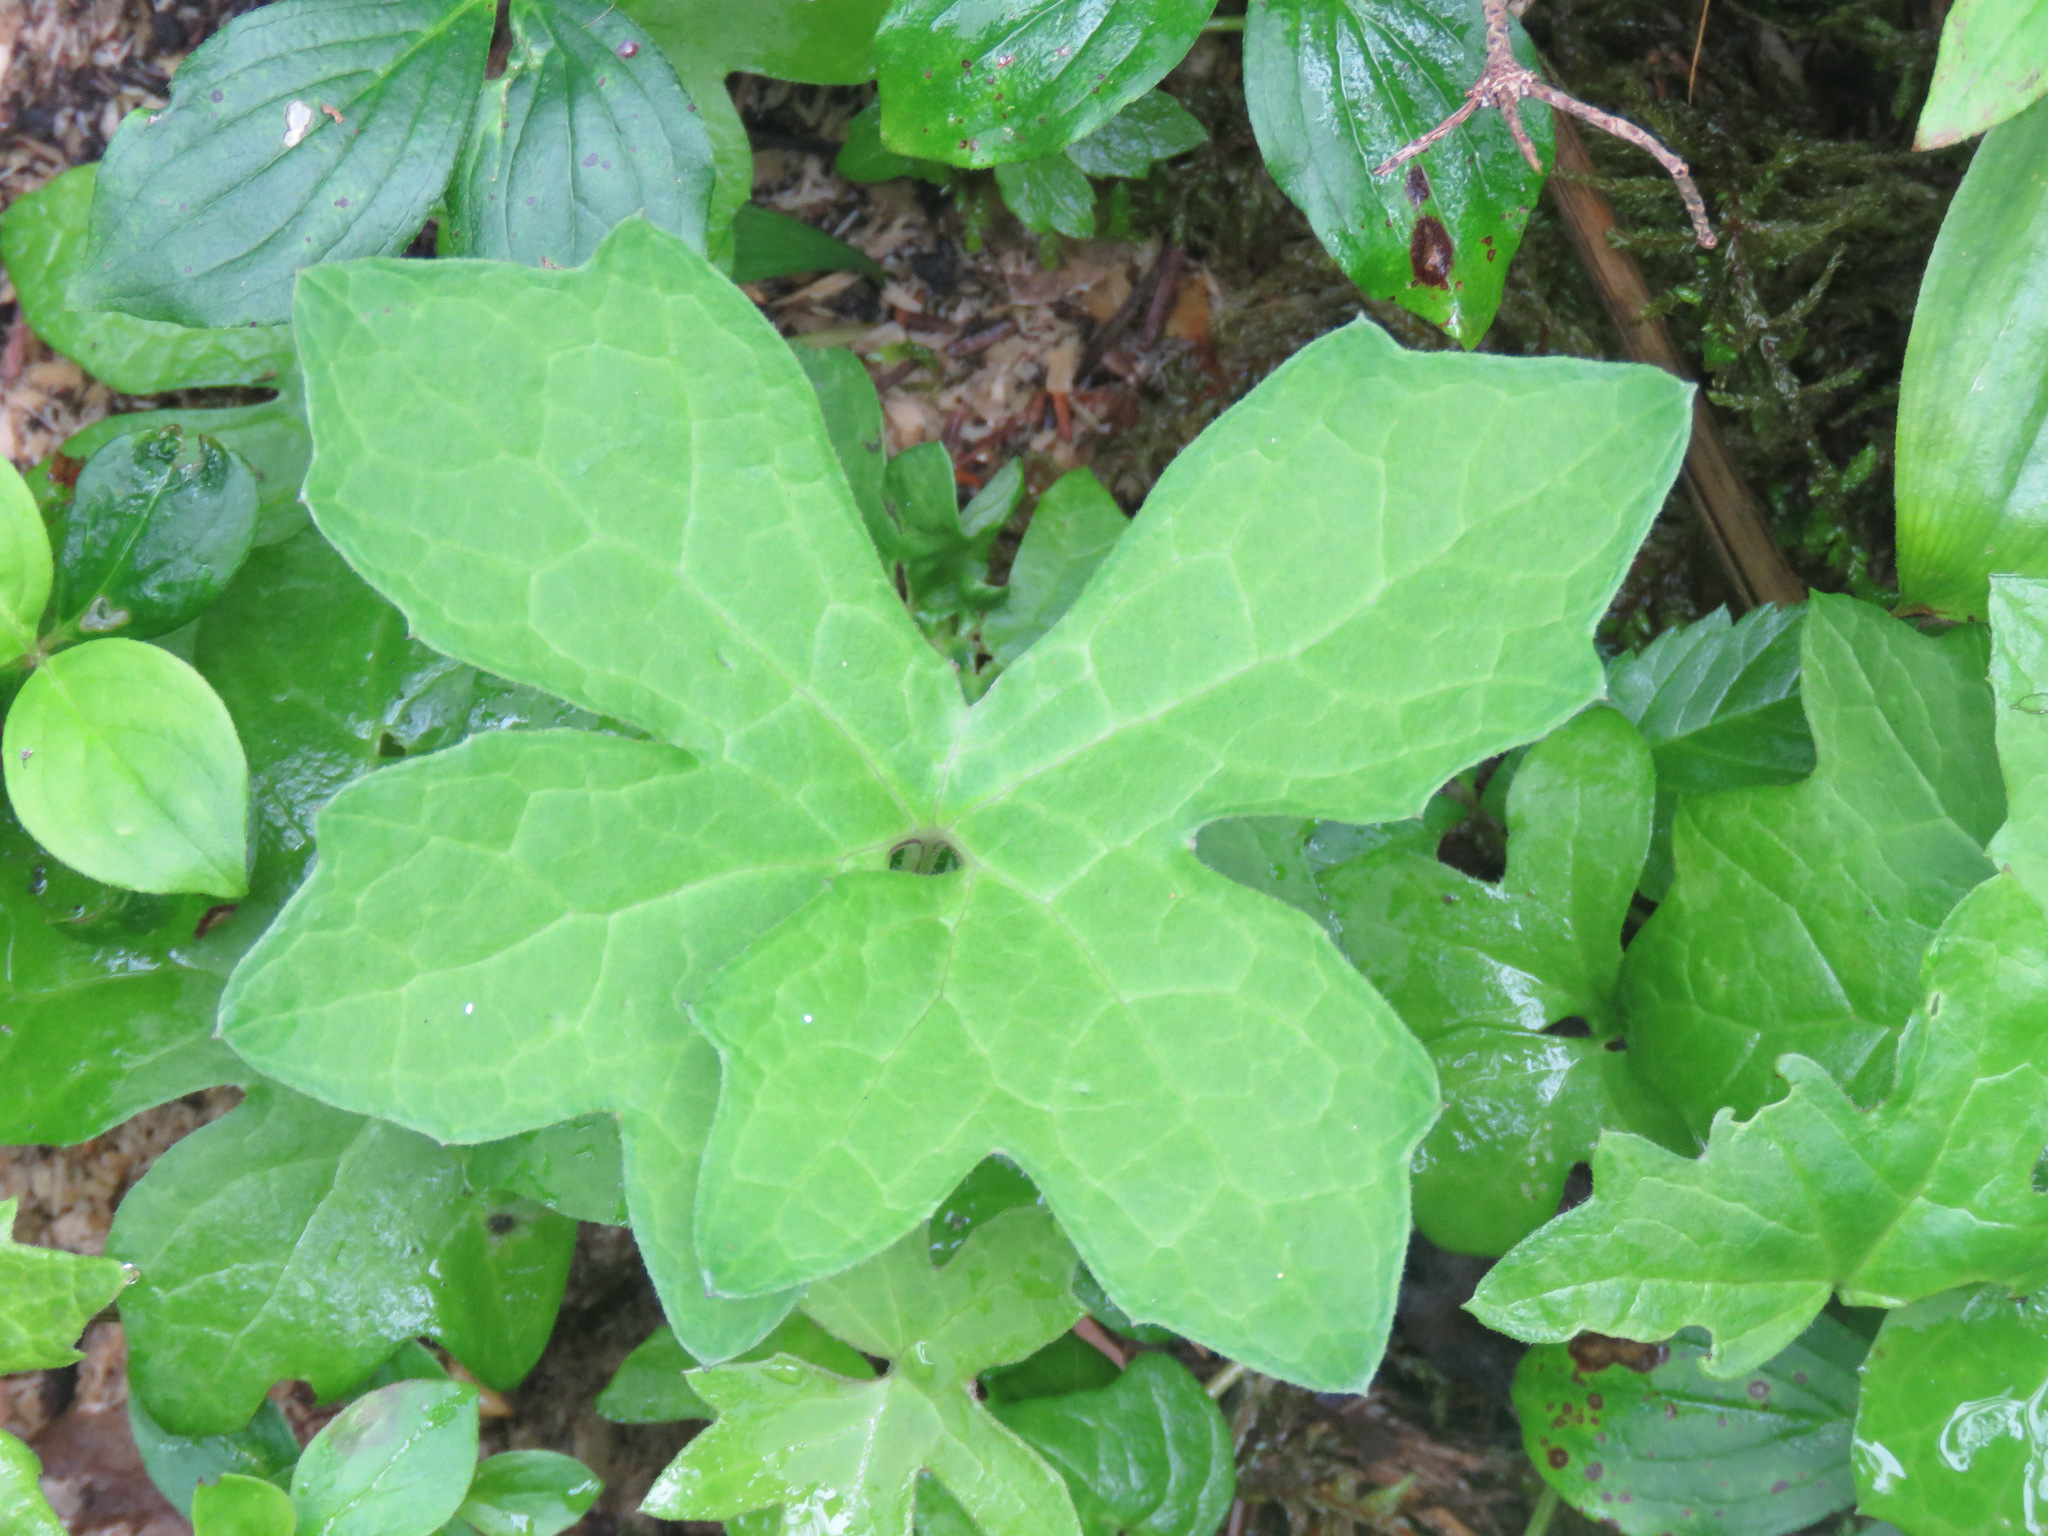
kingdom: Plantae
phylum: Tracheophyta
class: Magnoliopsida
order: Asterales
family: Asteraceae
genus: Petasites
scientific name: Petasites frigidus
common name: Arctic butterbur
